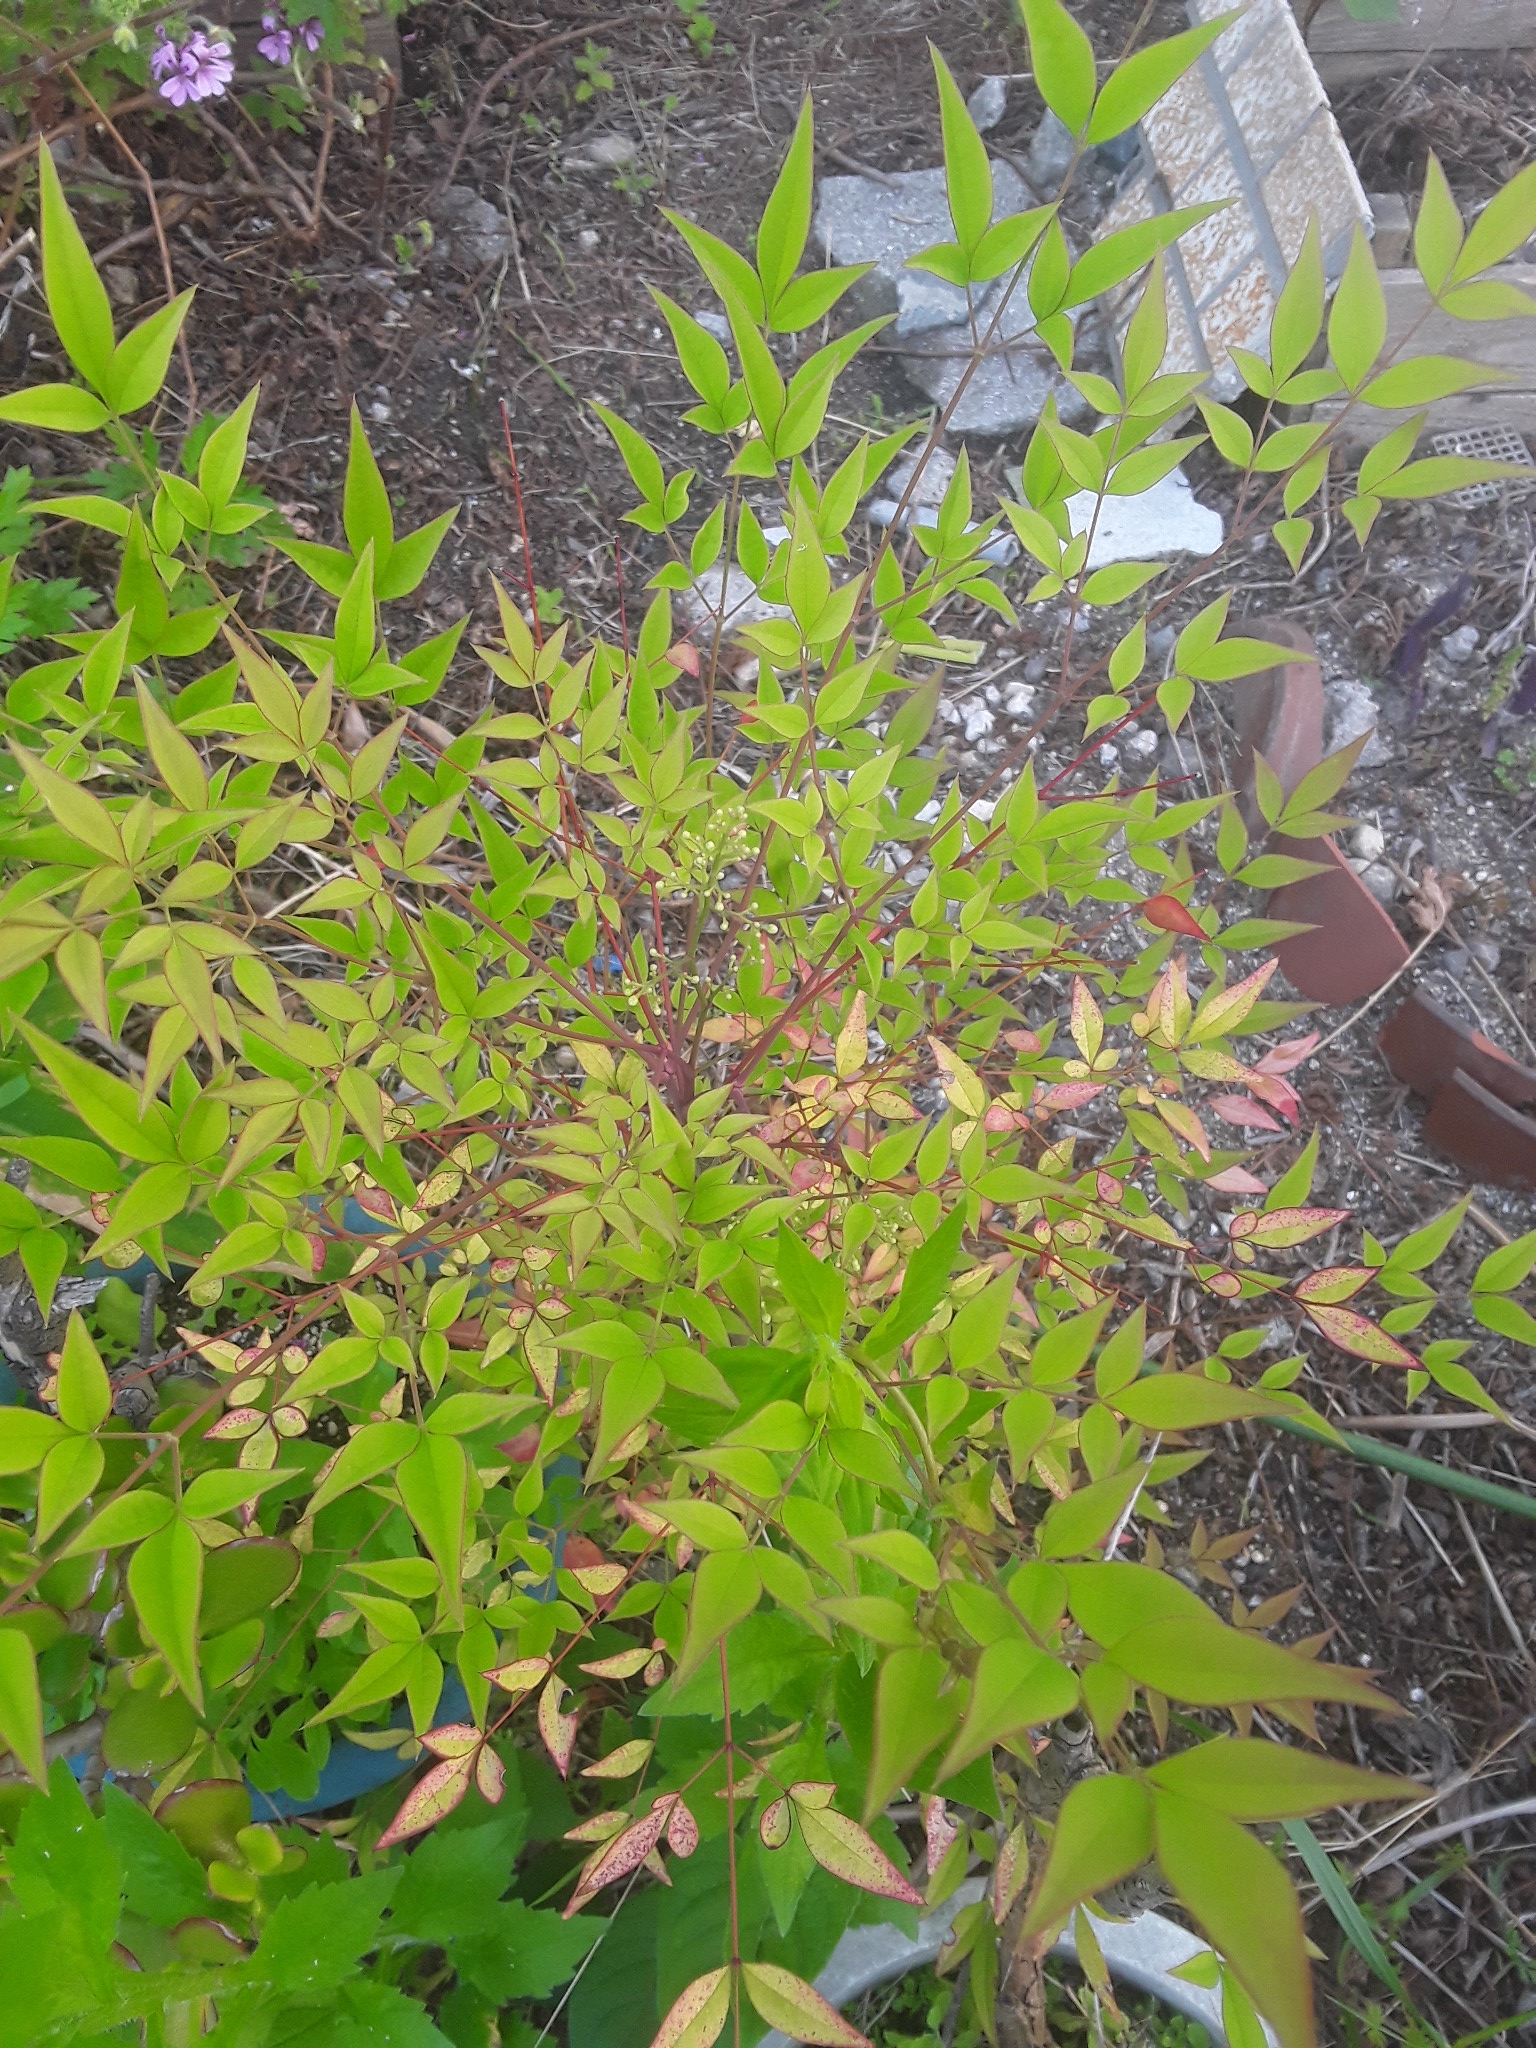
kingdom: Plantae
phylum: Tracheophyta
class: Magnoliopsida
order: Ranunculales
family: Berberidaceae
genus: Nandina
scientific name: Nandina domestica
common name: Sacred bamboo
